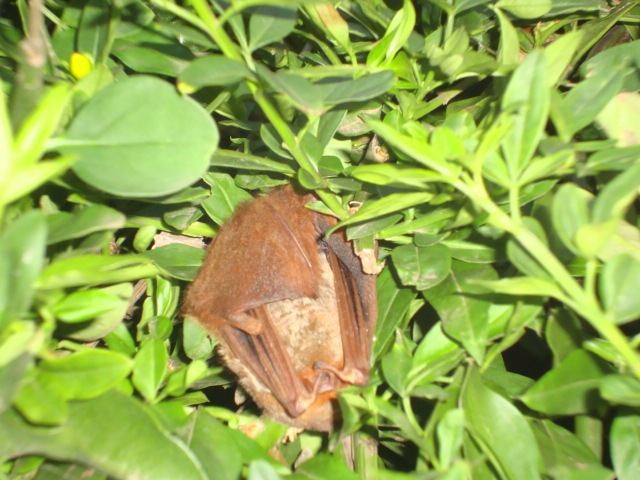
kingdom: Animalia
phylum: Chordata
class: Mammalia
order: Chiroptera
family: Vespertilionidae
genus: Lasiurus
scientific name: Lasiurus blossevillii
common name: Southern red bat
